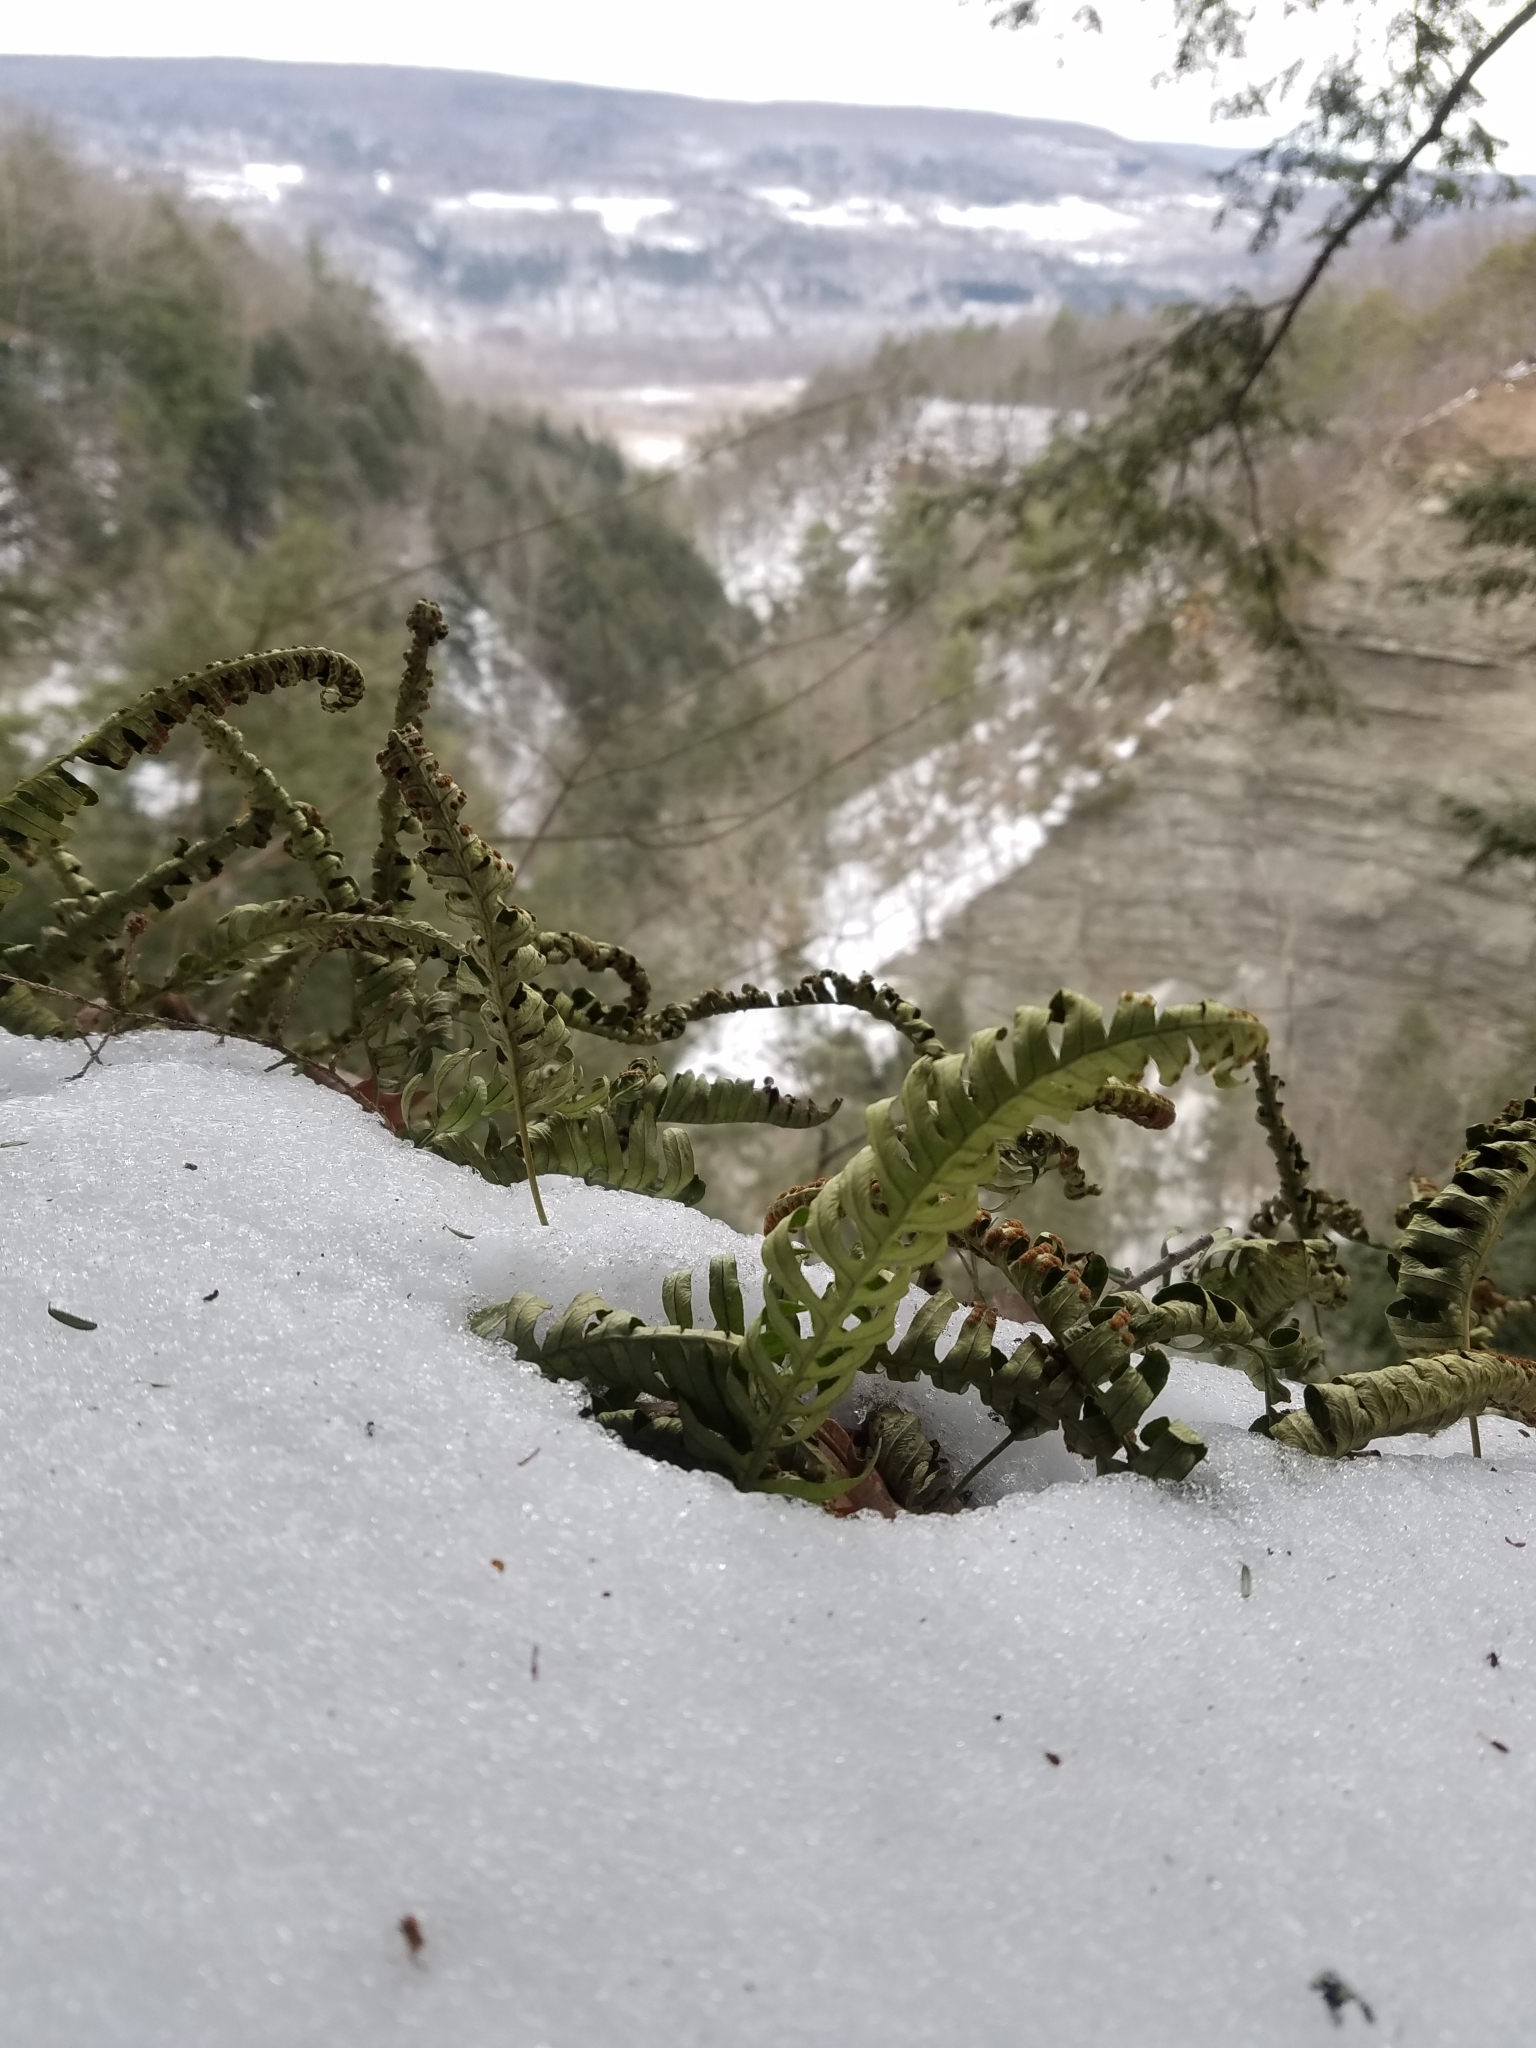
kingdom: Plantae
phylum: Tracheophyta
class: Polypodiopsida
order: Polypodiales
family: Polypodiaceae
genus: Polypodium
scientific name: Polypodium virginianum
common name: American wall fern
